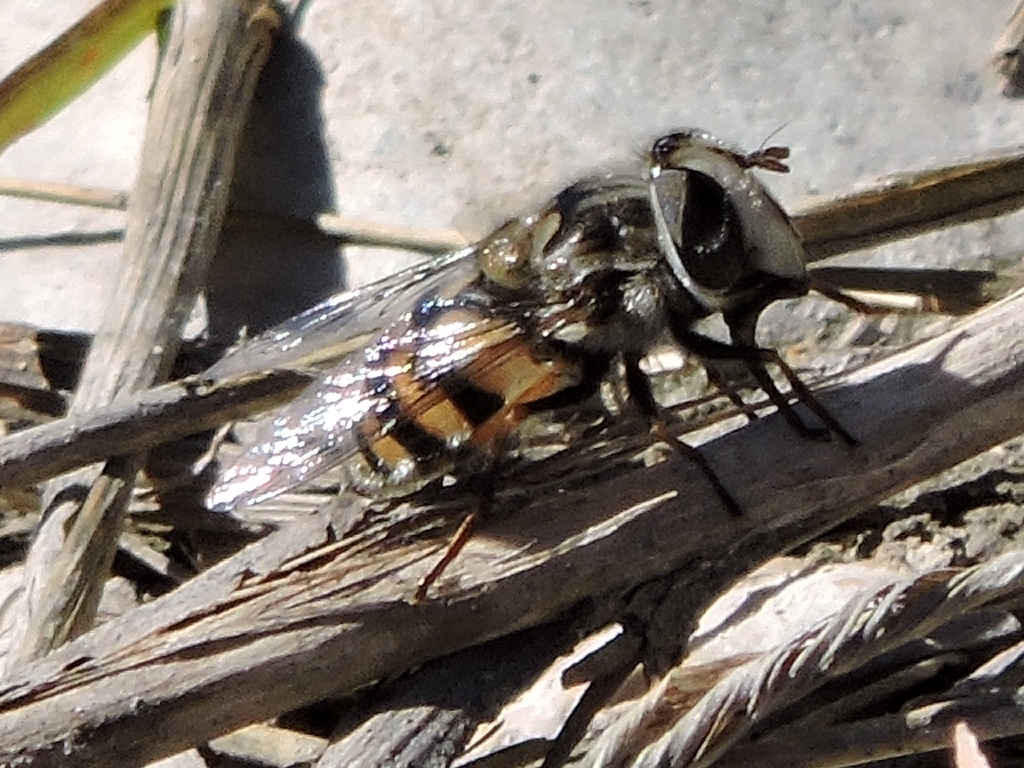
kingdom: Animalia
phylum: Arthropoda
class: Insecta
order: Diptera
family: Syrphidae
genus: Copestylum
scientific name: Copestylum avidum
